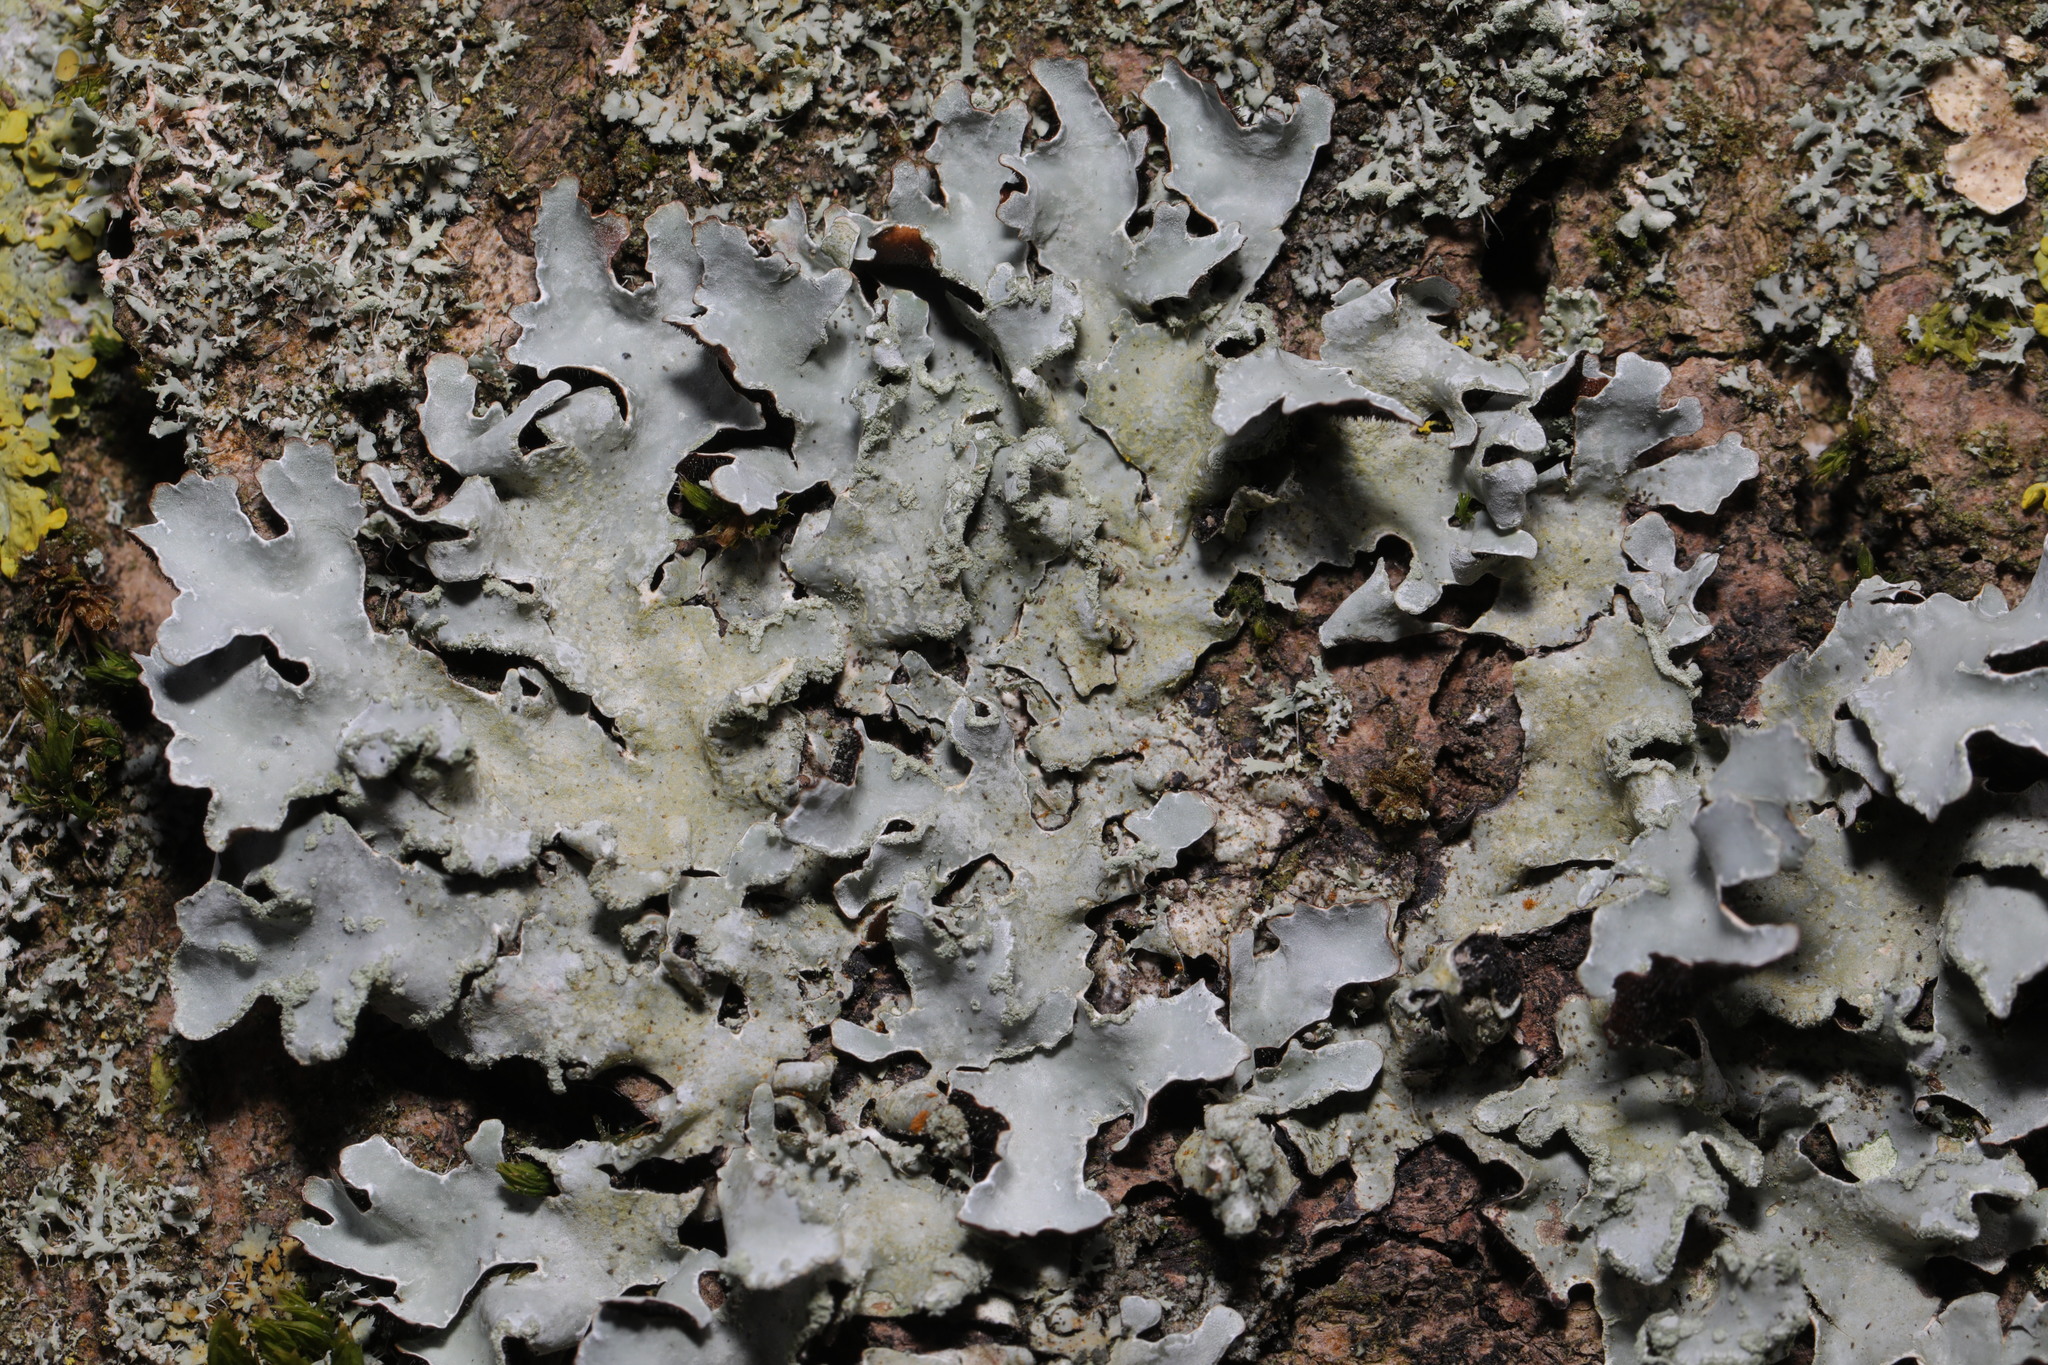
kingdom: Fungi
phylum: Ascomycota
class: Lecanoromycetes
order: Lecanorales
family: Parmeliaceae
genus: Parmelia
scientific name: Parmelia sulcata
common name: Netted shield lichen
